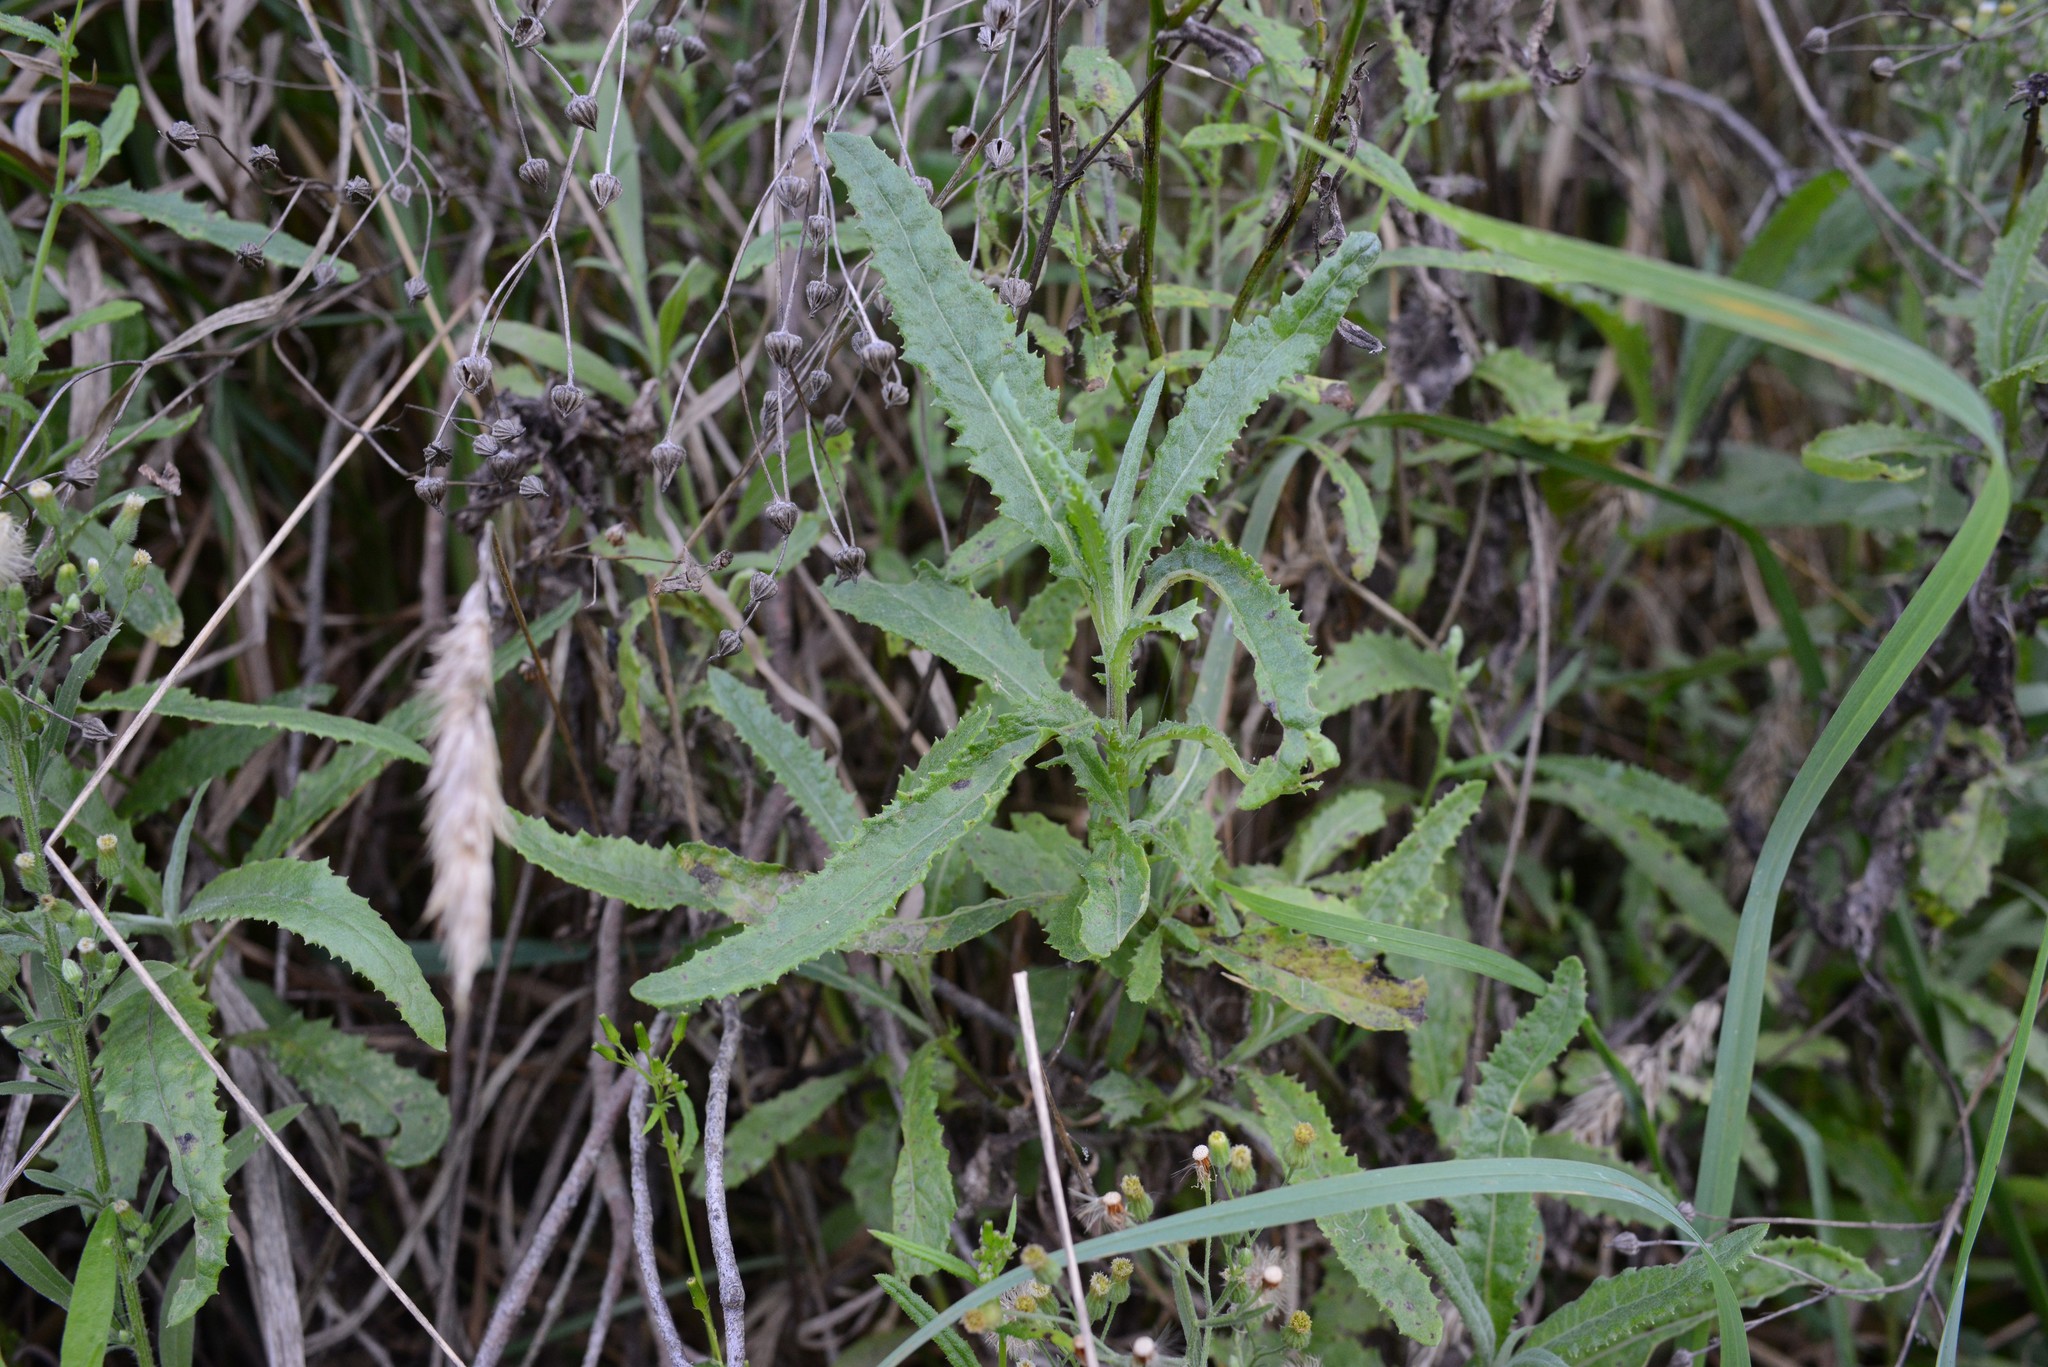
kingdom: Plantae
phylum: Tracheophyta
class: Magnoliopsida
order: Asterales
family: Asteraceae
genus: Senecio
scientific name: Senecio minimus
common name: Toothed fireweed
